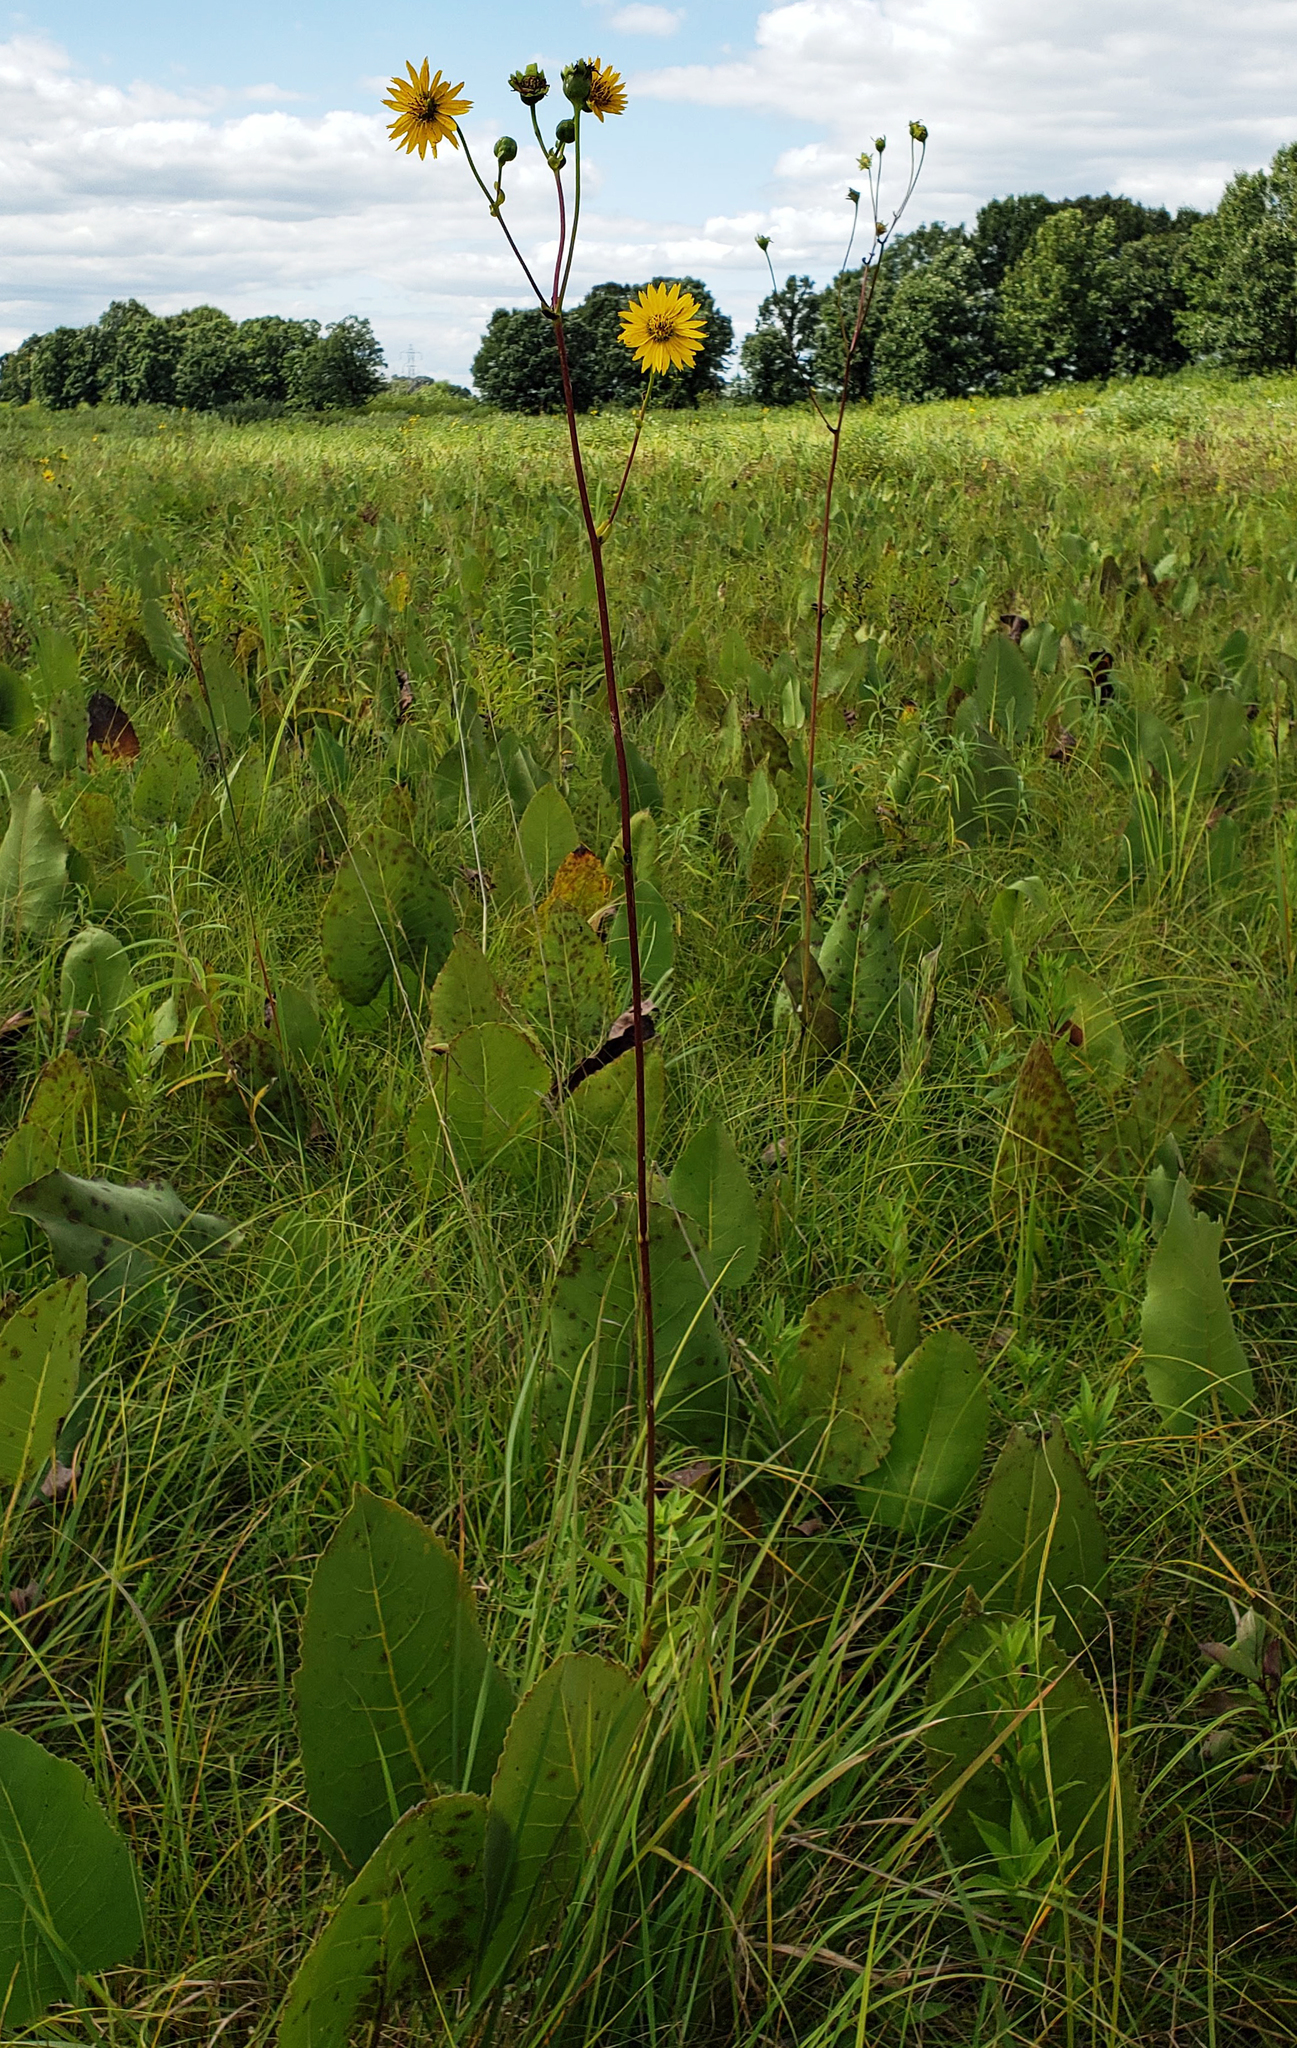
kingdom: Plantae
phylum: Tracheophyta
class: Magnoliopsida
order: Asterales
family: Asteraceae
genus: Silphium
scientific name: Silphium terebinthinaceum
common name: Basal-leaf rosinweed
